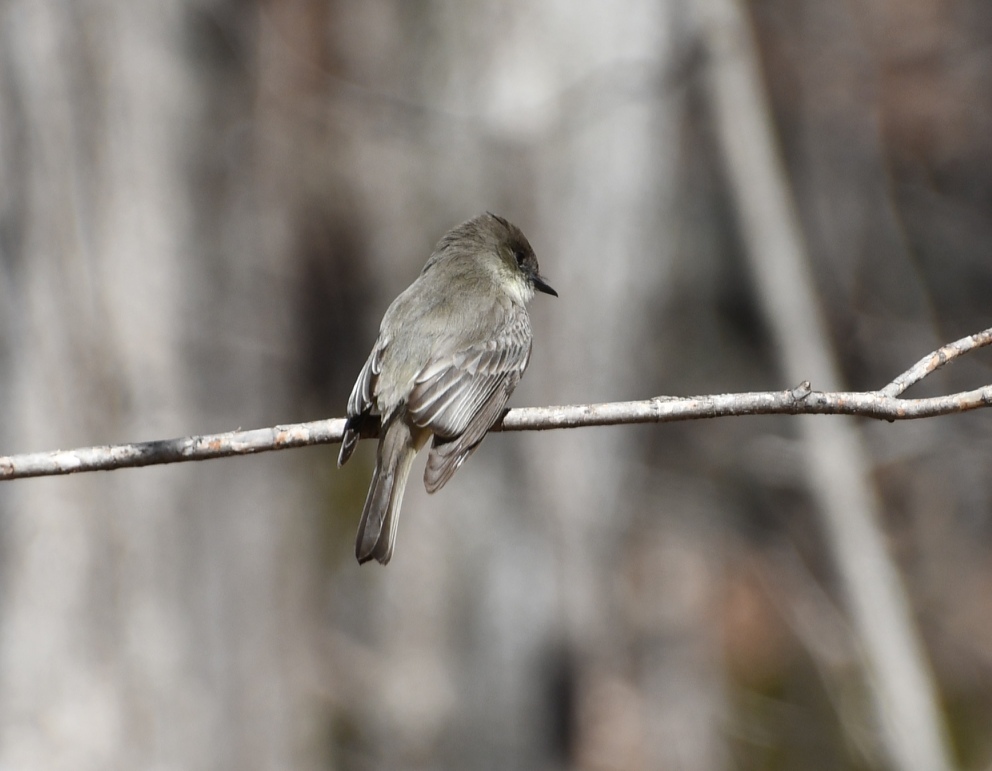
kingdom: Animalia
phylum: Chordata
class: Aves
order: Passeriformes
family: Tyrannidae
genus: Sayornis
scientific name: Sayornis phoebe
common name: Eastern phoebe
